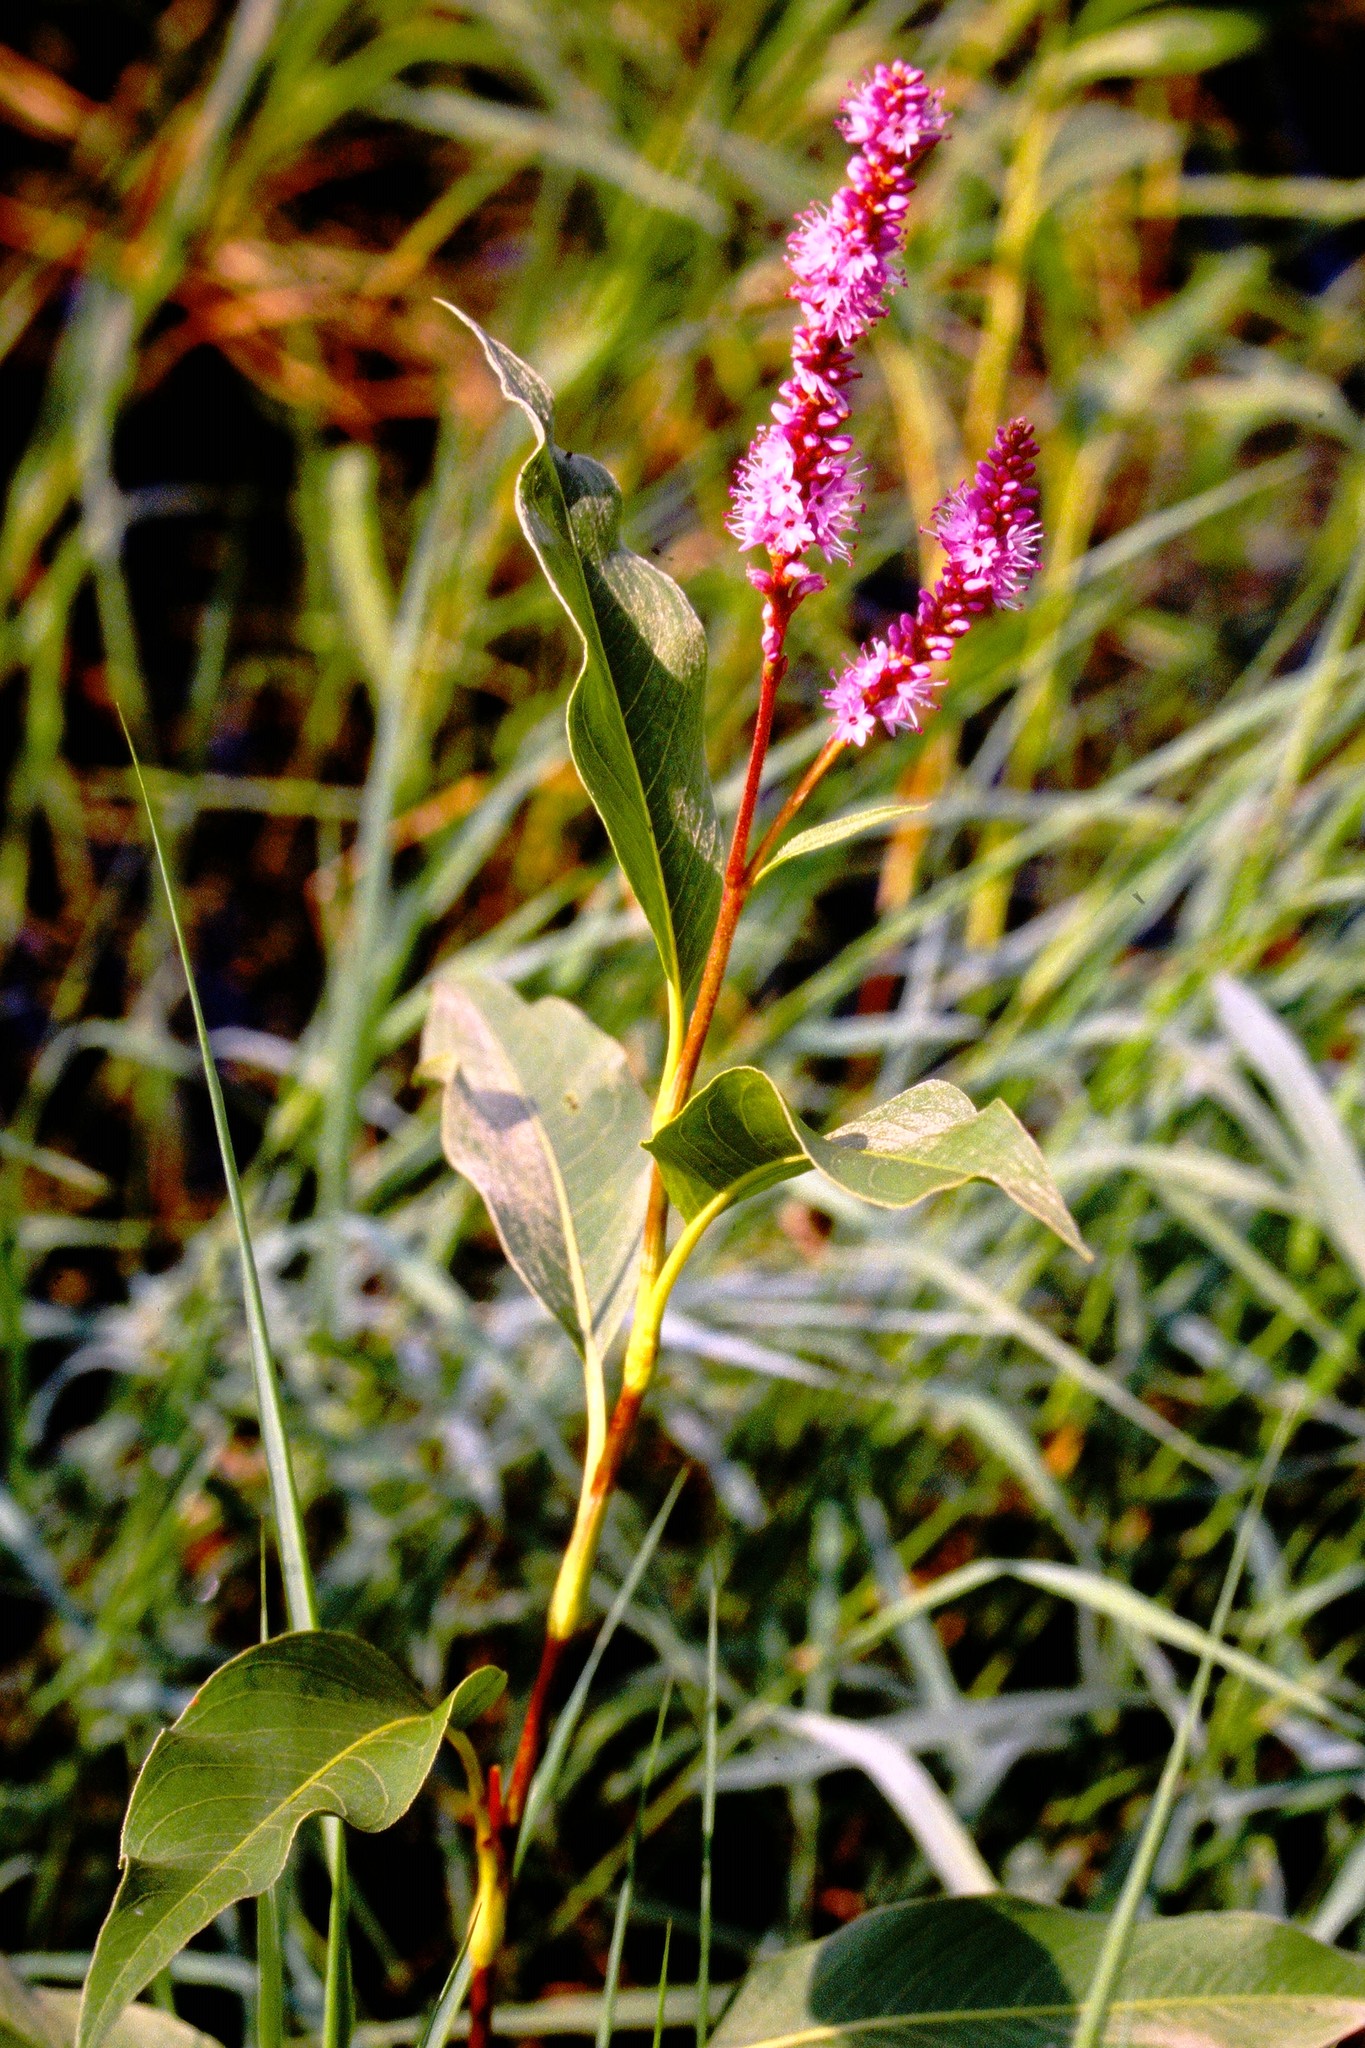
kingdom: Plantae
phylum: Tracheophyta
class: Magnoliopsida
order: Caryophyllales
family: Polygonaceae
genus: Persicaria
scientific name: Persicaria amphibia
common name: Amphibious bistort
